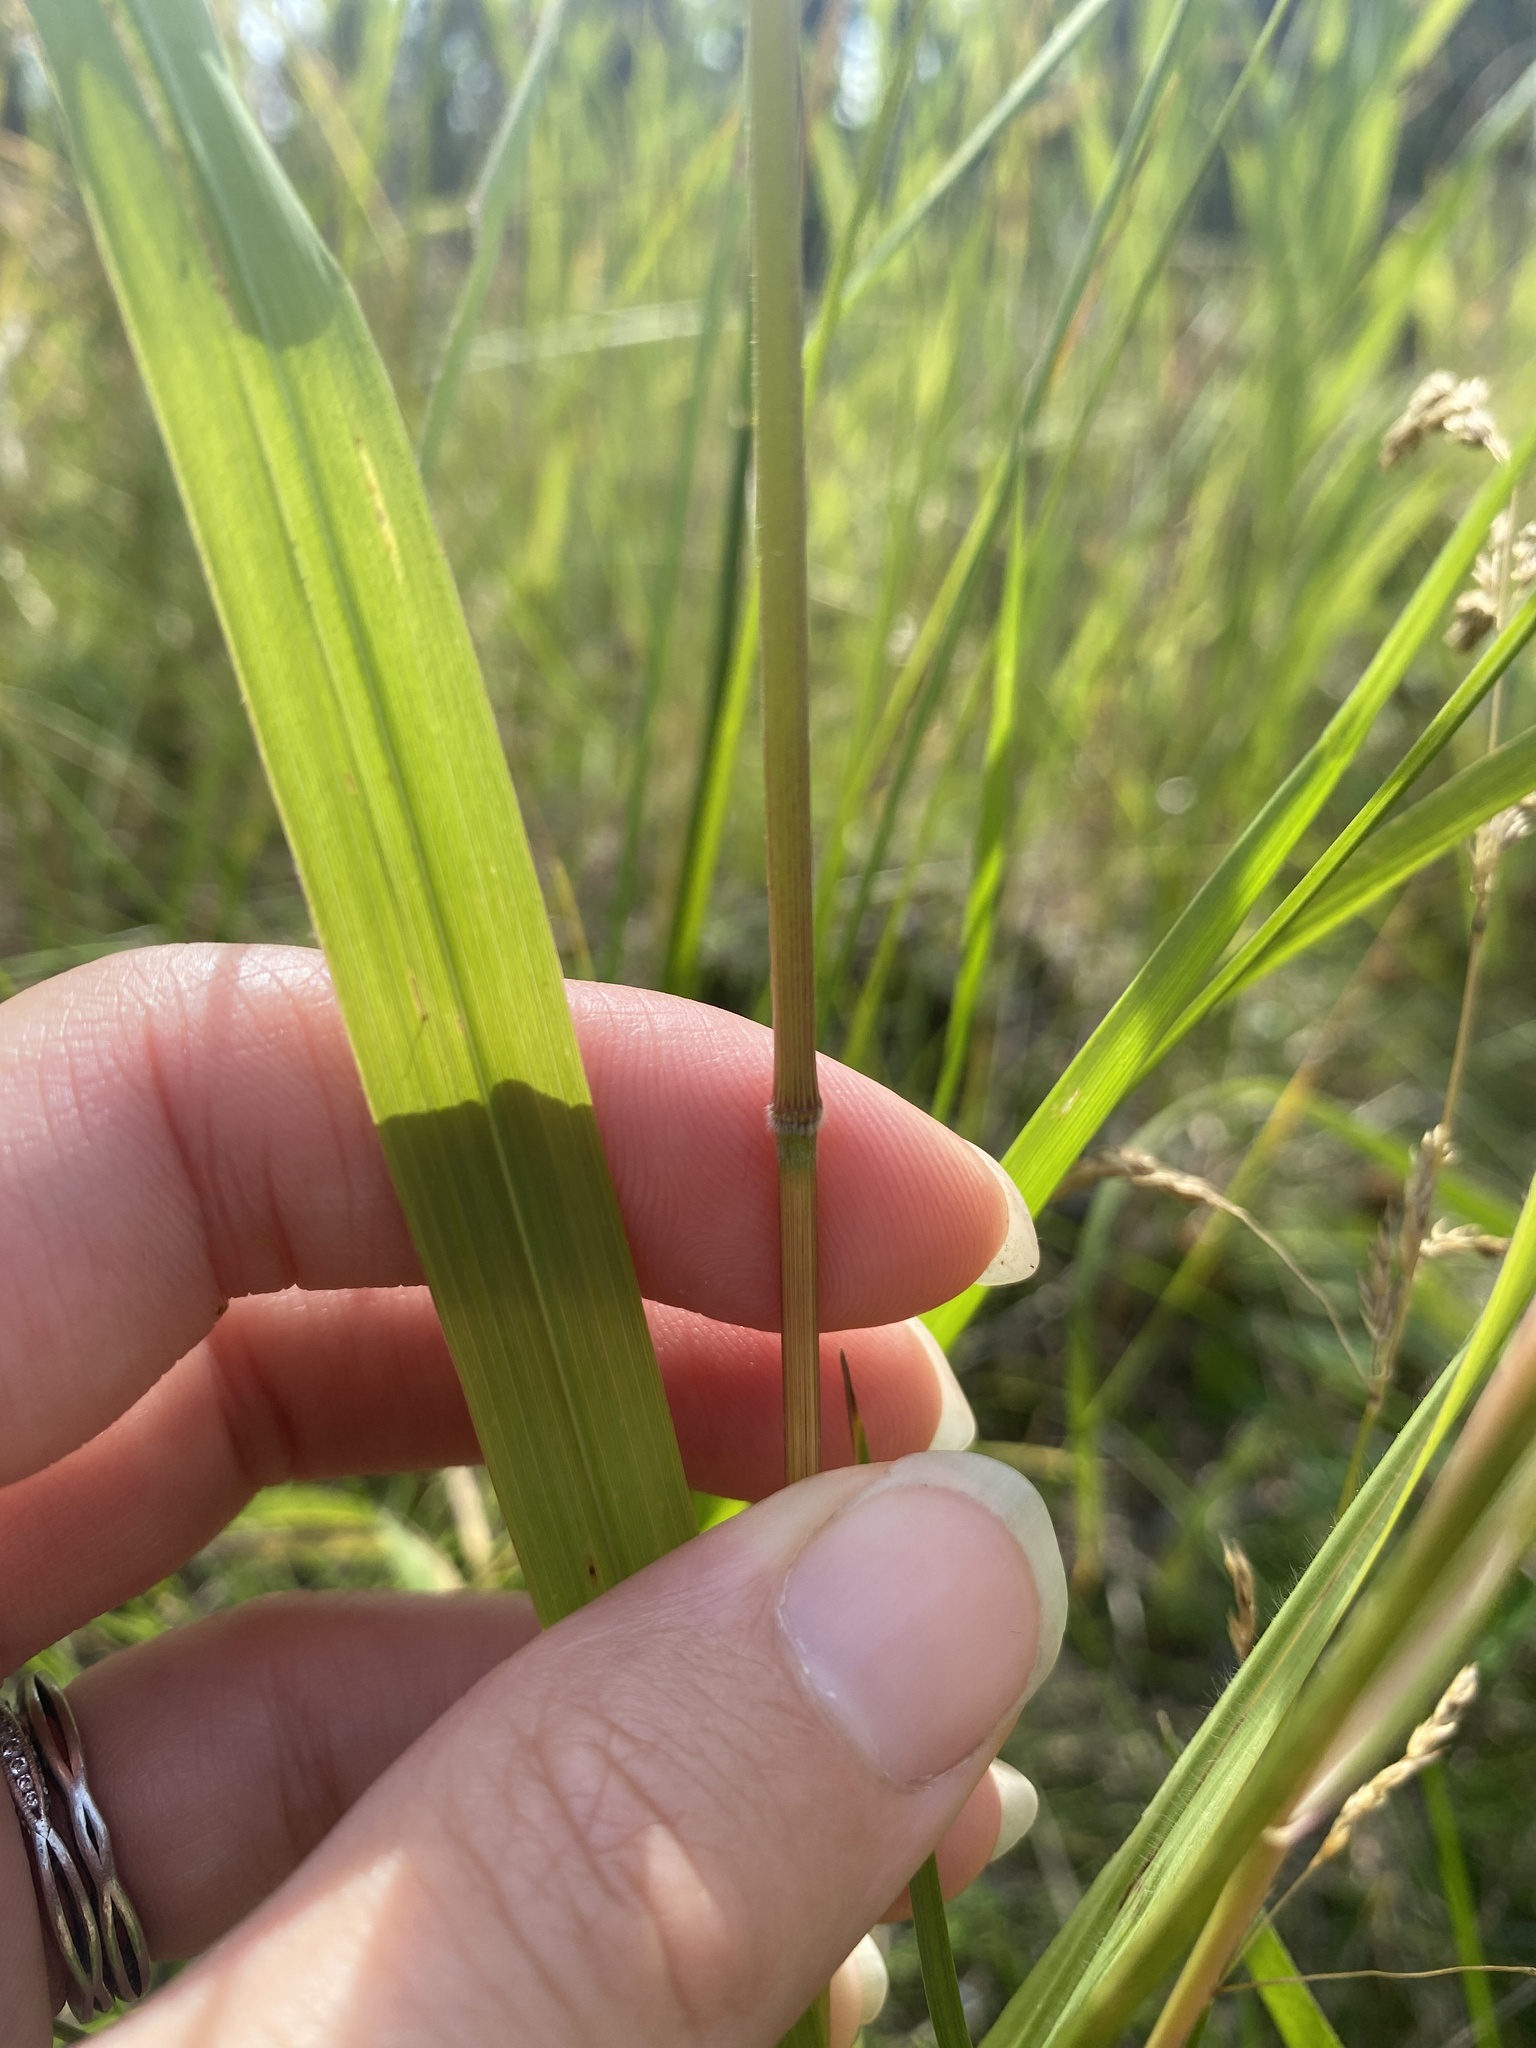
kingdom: Plantae
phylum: Tracheophyta
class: Liliopsida
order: Poales
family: Poaceae
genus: Bromus
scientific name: Bromus ciliatus
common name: Fringe brome
